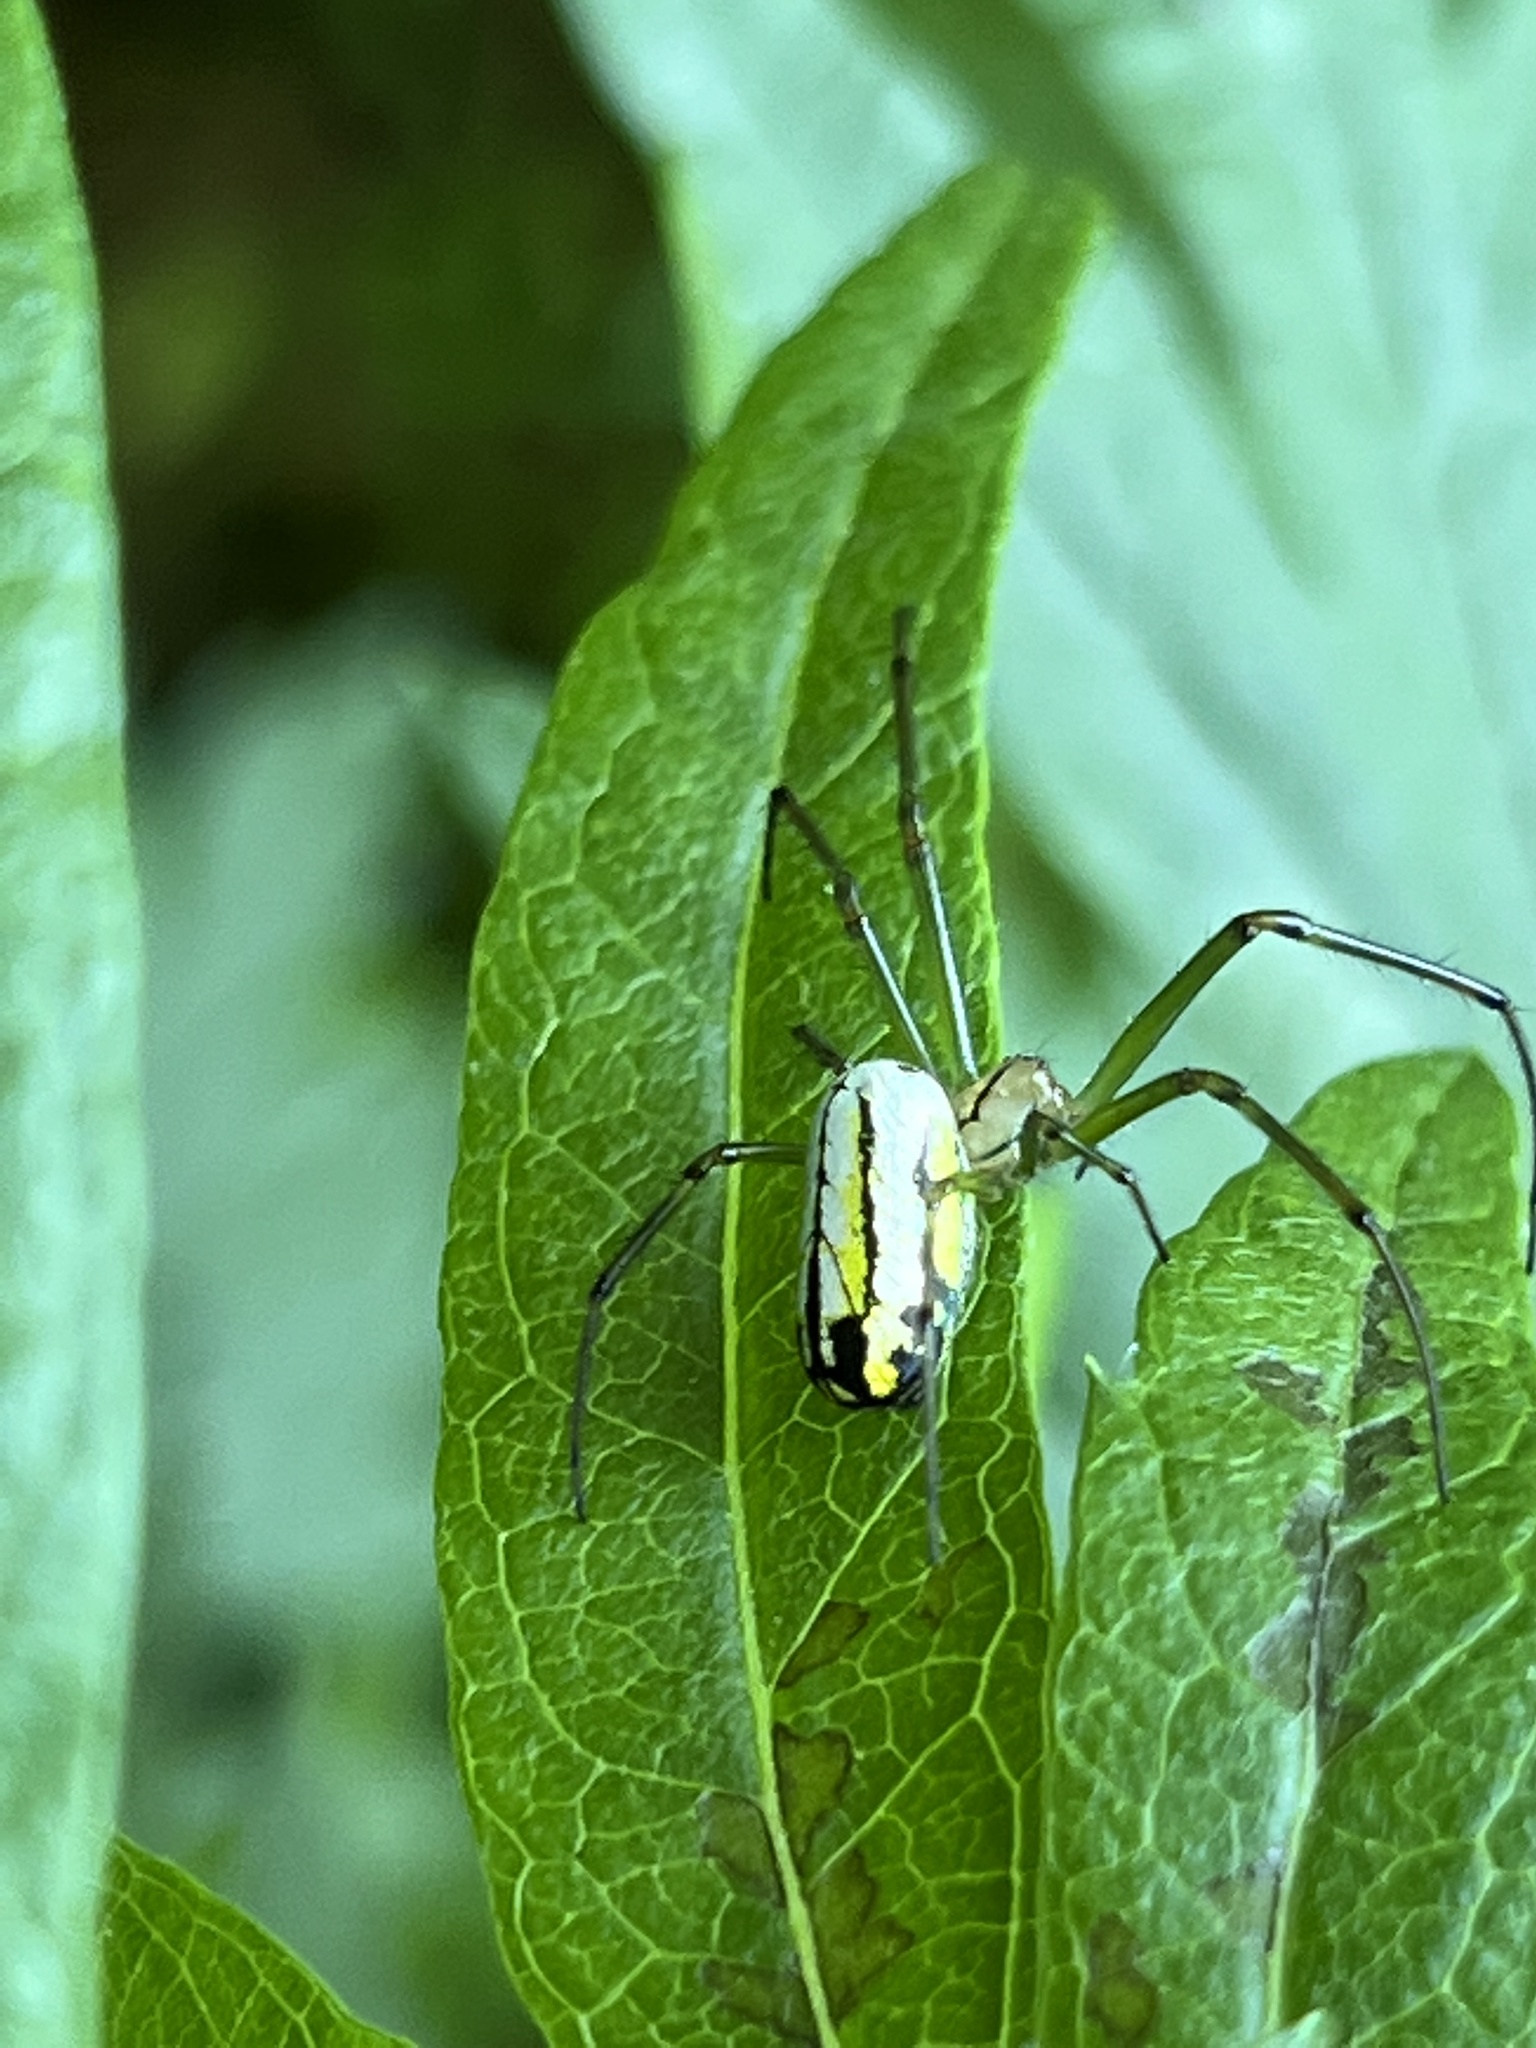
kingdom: Animalia
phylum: Arthropoda
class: Arachnida
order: Araneae
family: Tetragnathidae
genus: Leucauge
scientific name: Leucauge venusta
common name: Longjawed orb weavers
